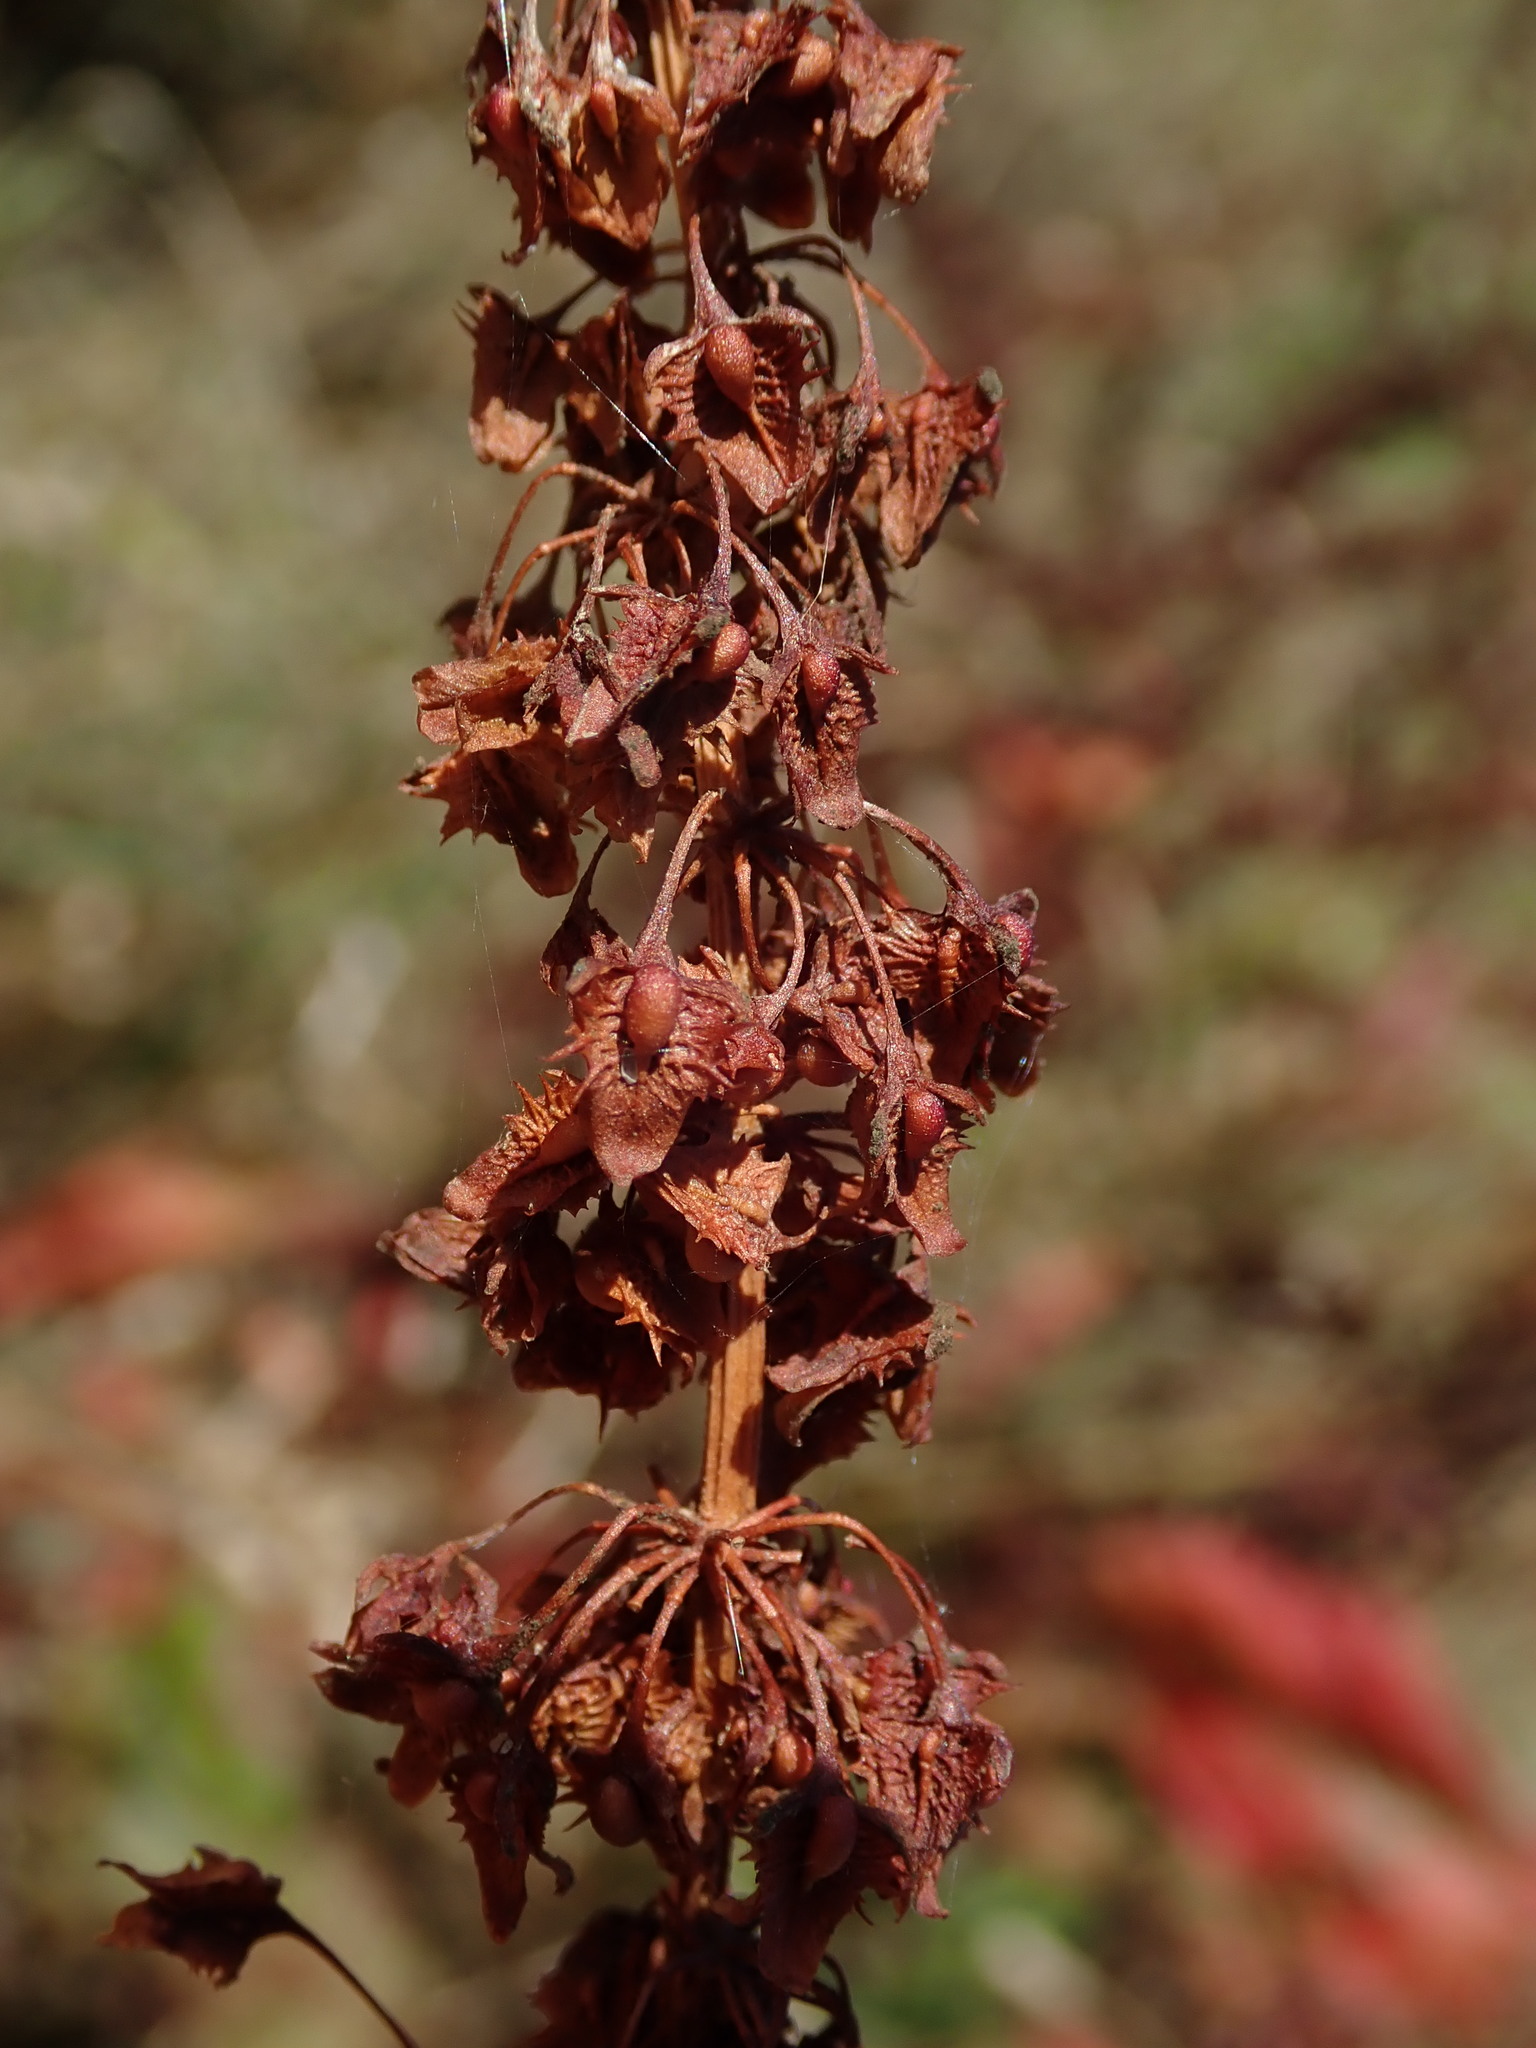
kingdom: Plantae
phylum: Tracheophyta
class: Magnoliopsida
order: Caryophyllales
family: Polygonaceae
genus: Rumex
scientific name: Rumex obtusifolius
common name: Bitter dock
